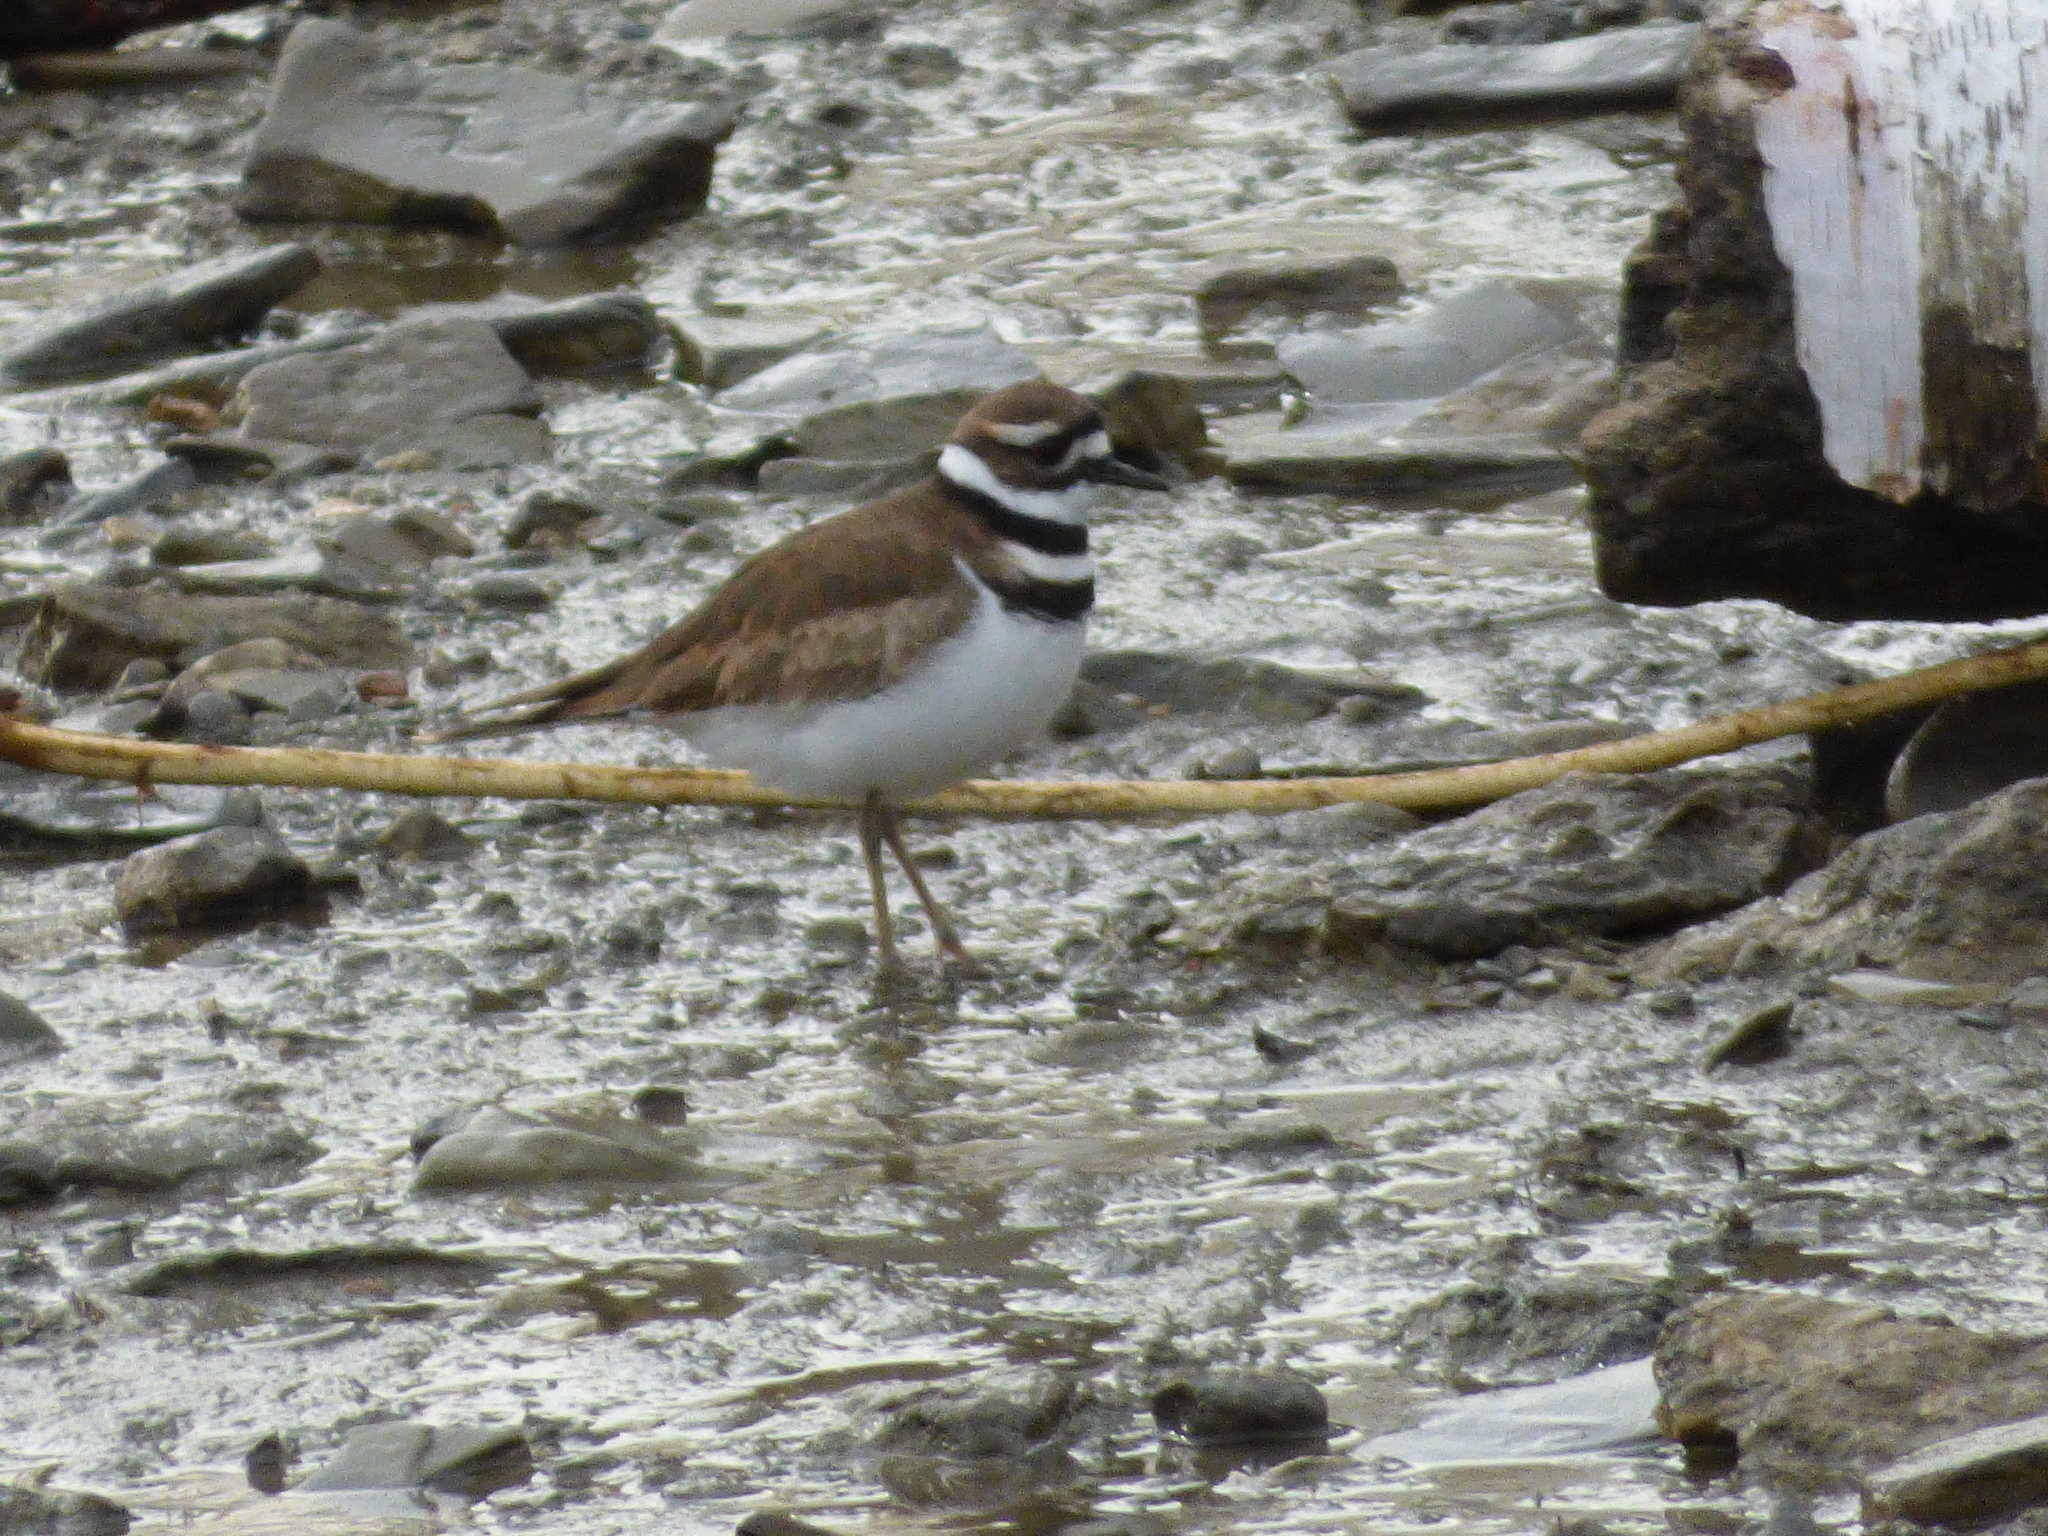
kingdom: Animalia
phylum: Chordata
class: Aves
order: Charadriiformes
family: Charadriidae
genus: Charadrius
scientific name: Charadrius vociferus
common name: Killdeer
